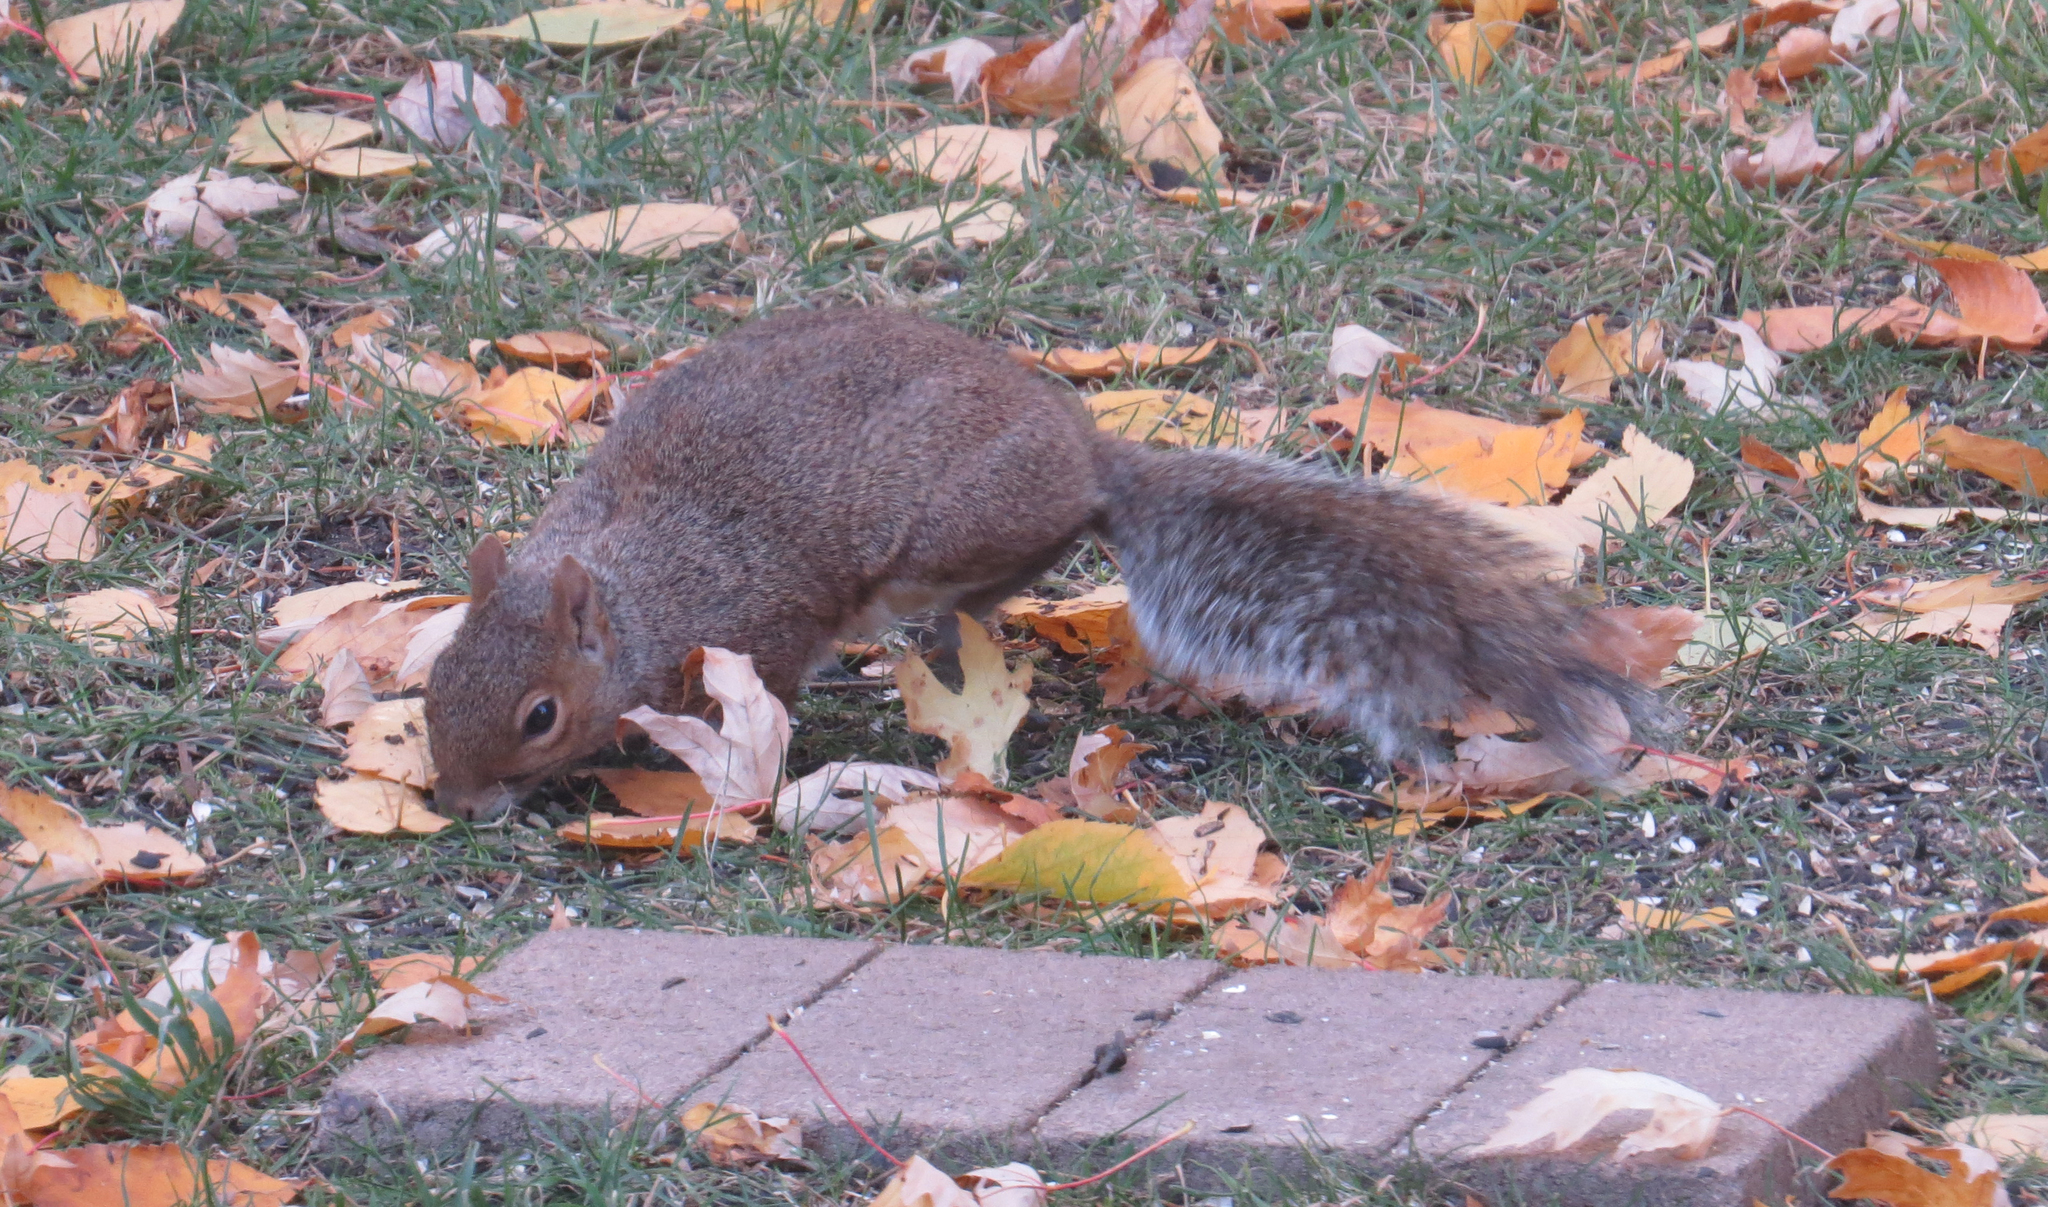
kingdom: Animalia
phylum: Chordata
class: Mammalia
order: Rodentia
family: Sciuridae
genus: Sciurus
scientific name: Sciurus carolinensis
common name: Eastern gray squirrel
